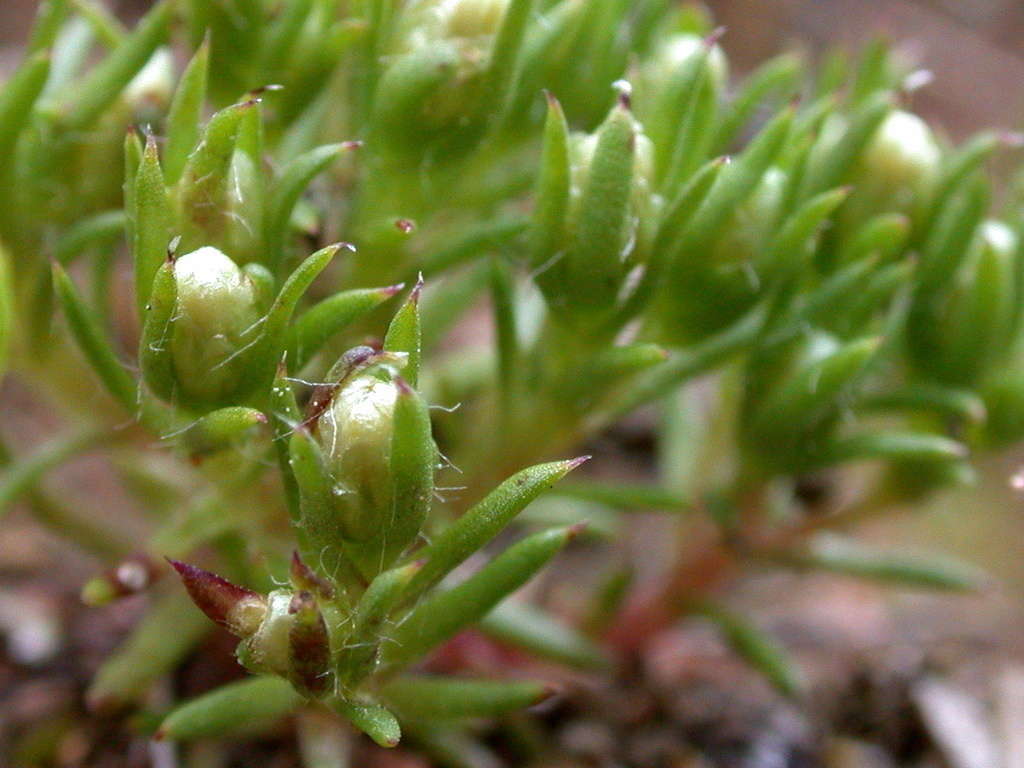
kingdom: Plantae
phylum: Tracheophyta
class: Magnoliopsida
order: Asterales
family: Asteraceae
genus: Hyalosperma
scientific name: Hyalosperma demissum
